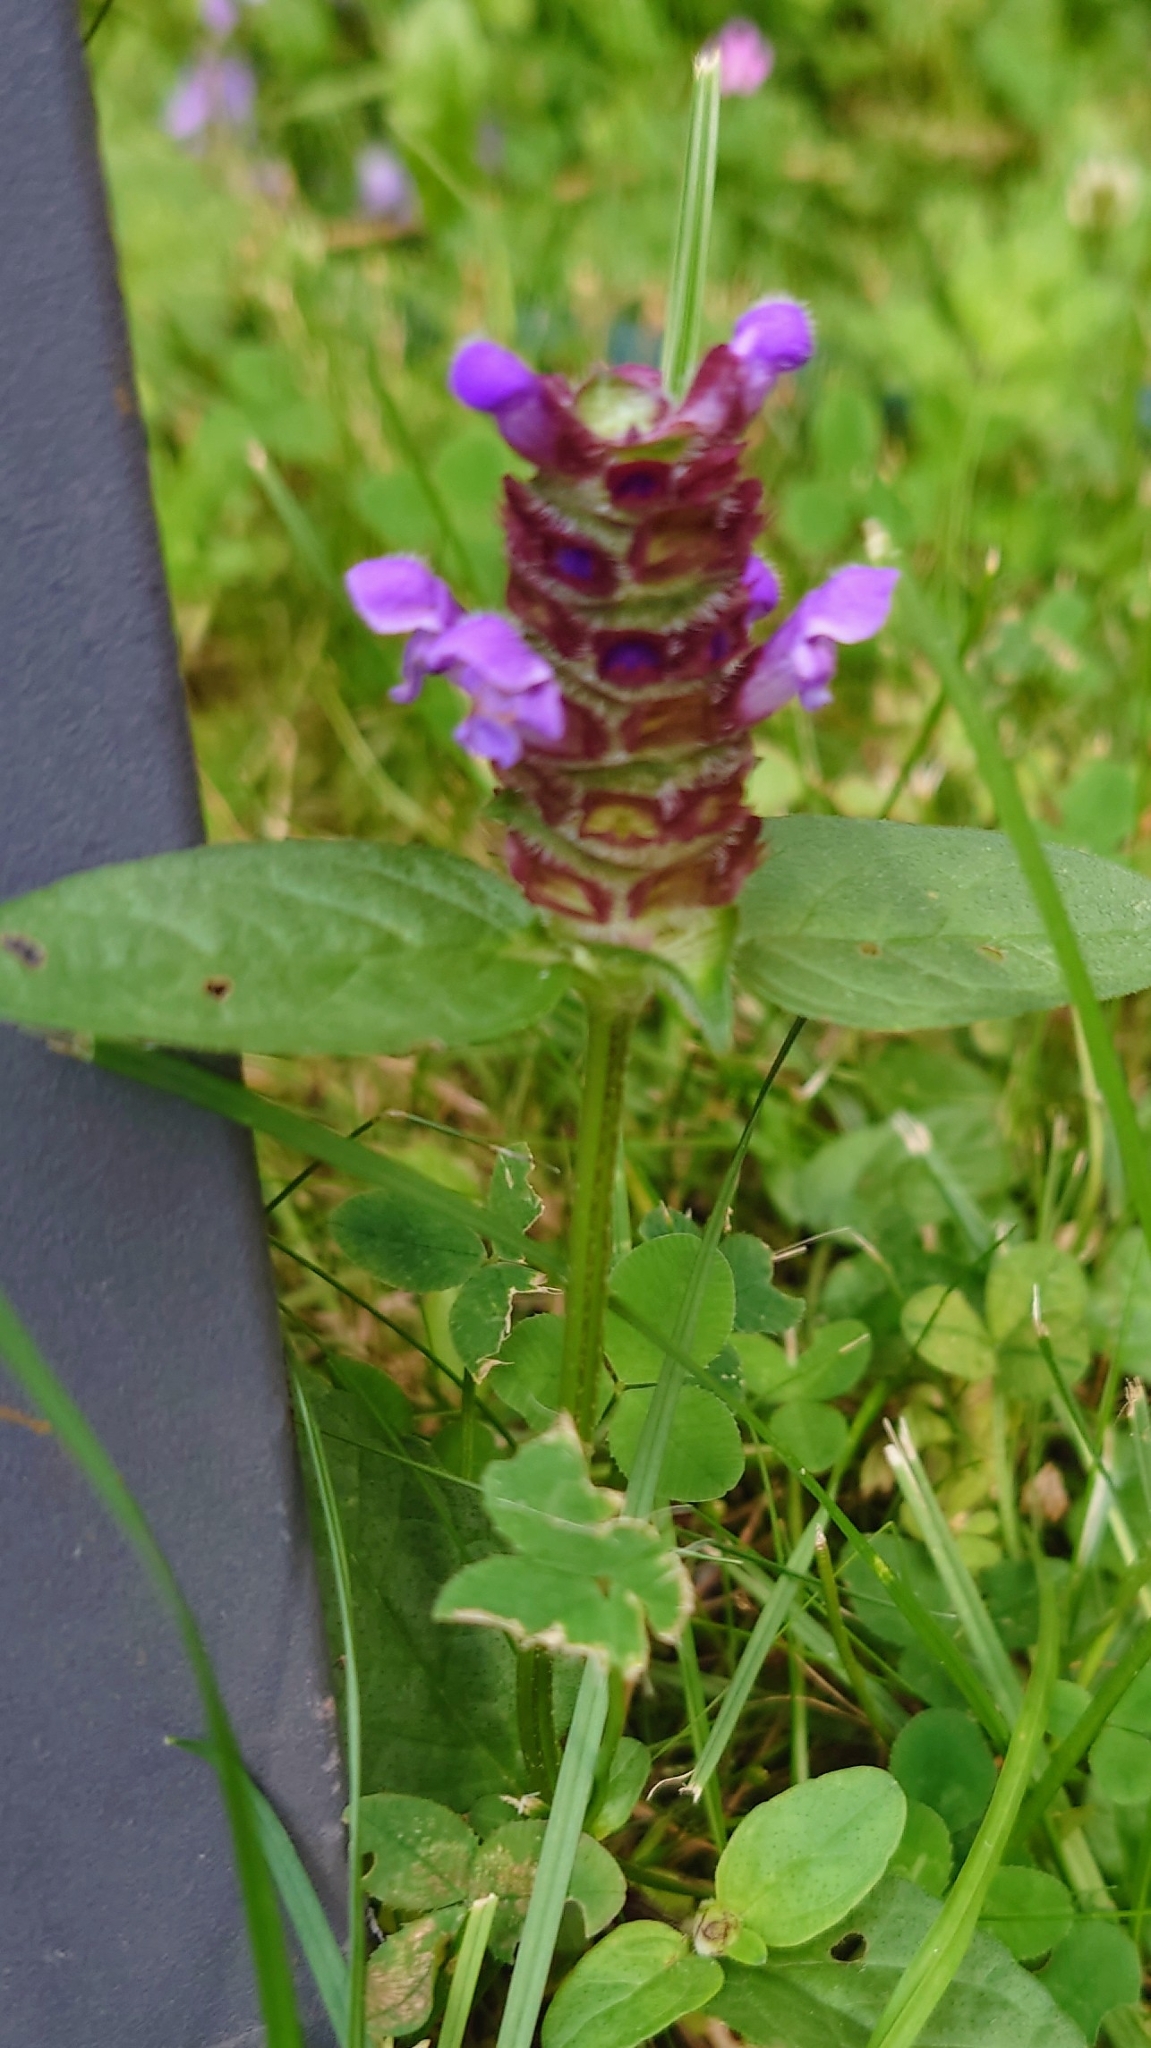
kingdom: Plantae
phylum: Tracheophyta
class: Magnoliopsida
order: Lamiales
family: Lamiaceae
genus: Prunella
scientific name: Prunella vulgaris
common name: Heal-all
